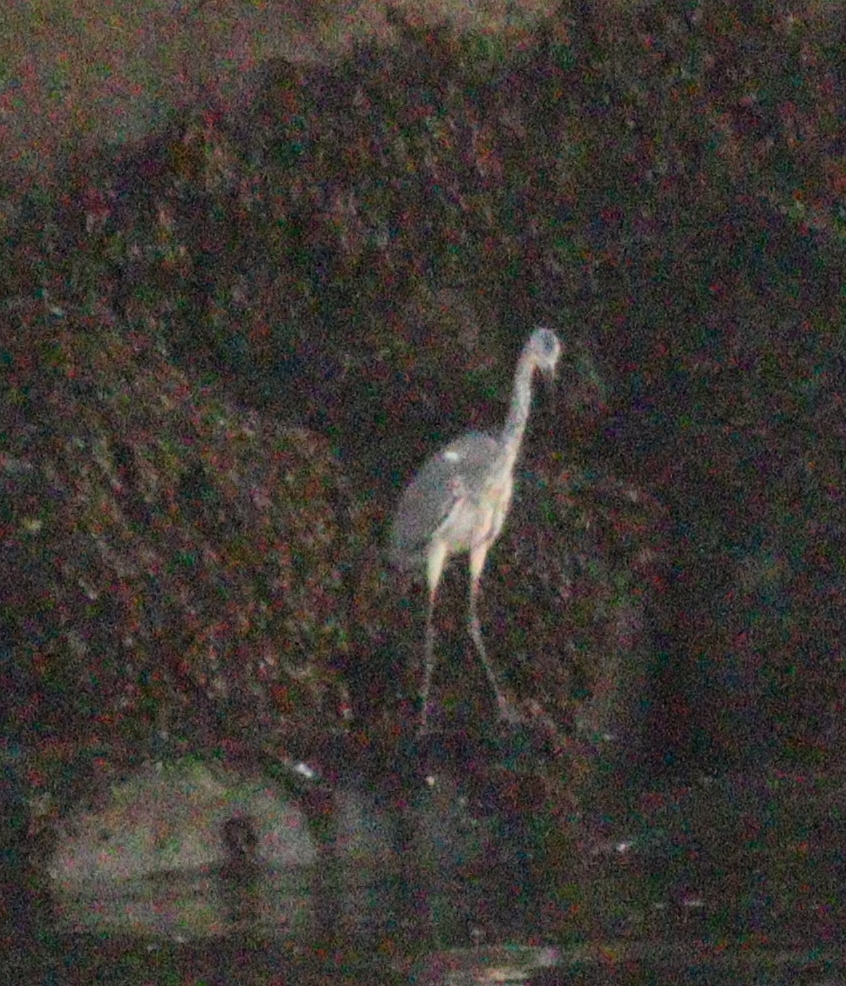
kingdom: Animalia
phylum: Chordata
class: Aves
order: Pelecaniformes
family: Ardeidae
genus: Ardea
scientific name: Ardea cinerea
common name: Grey heron
